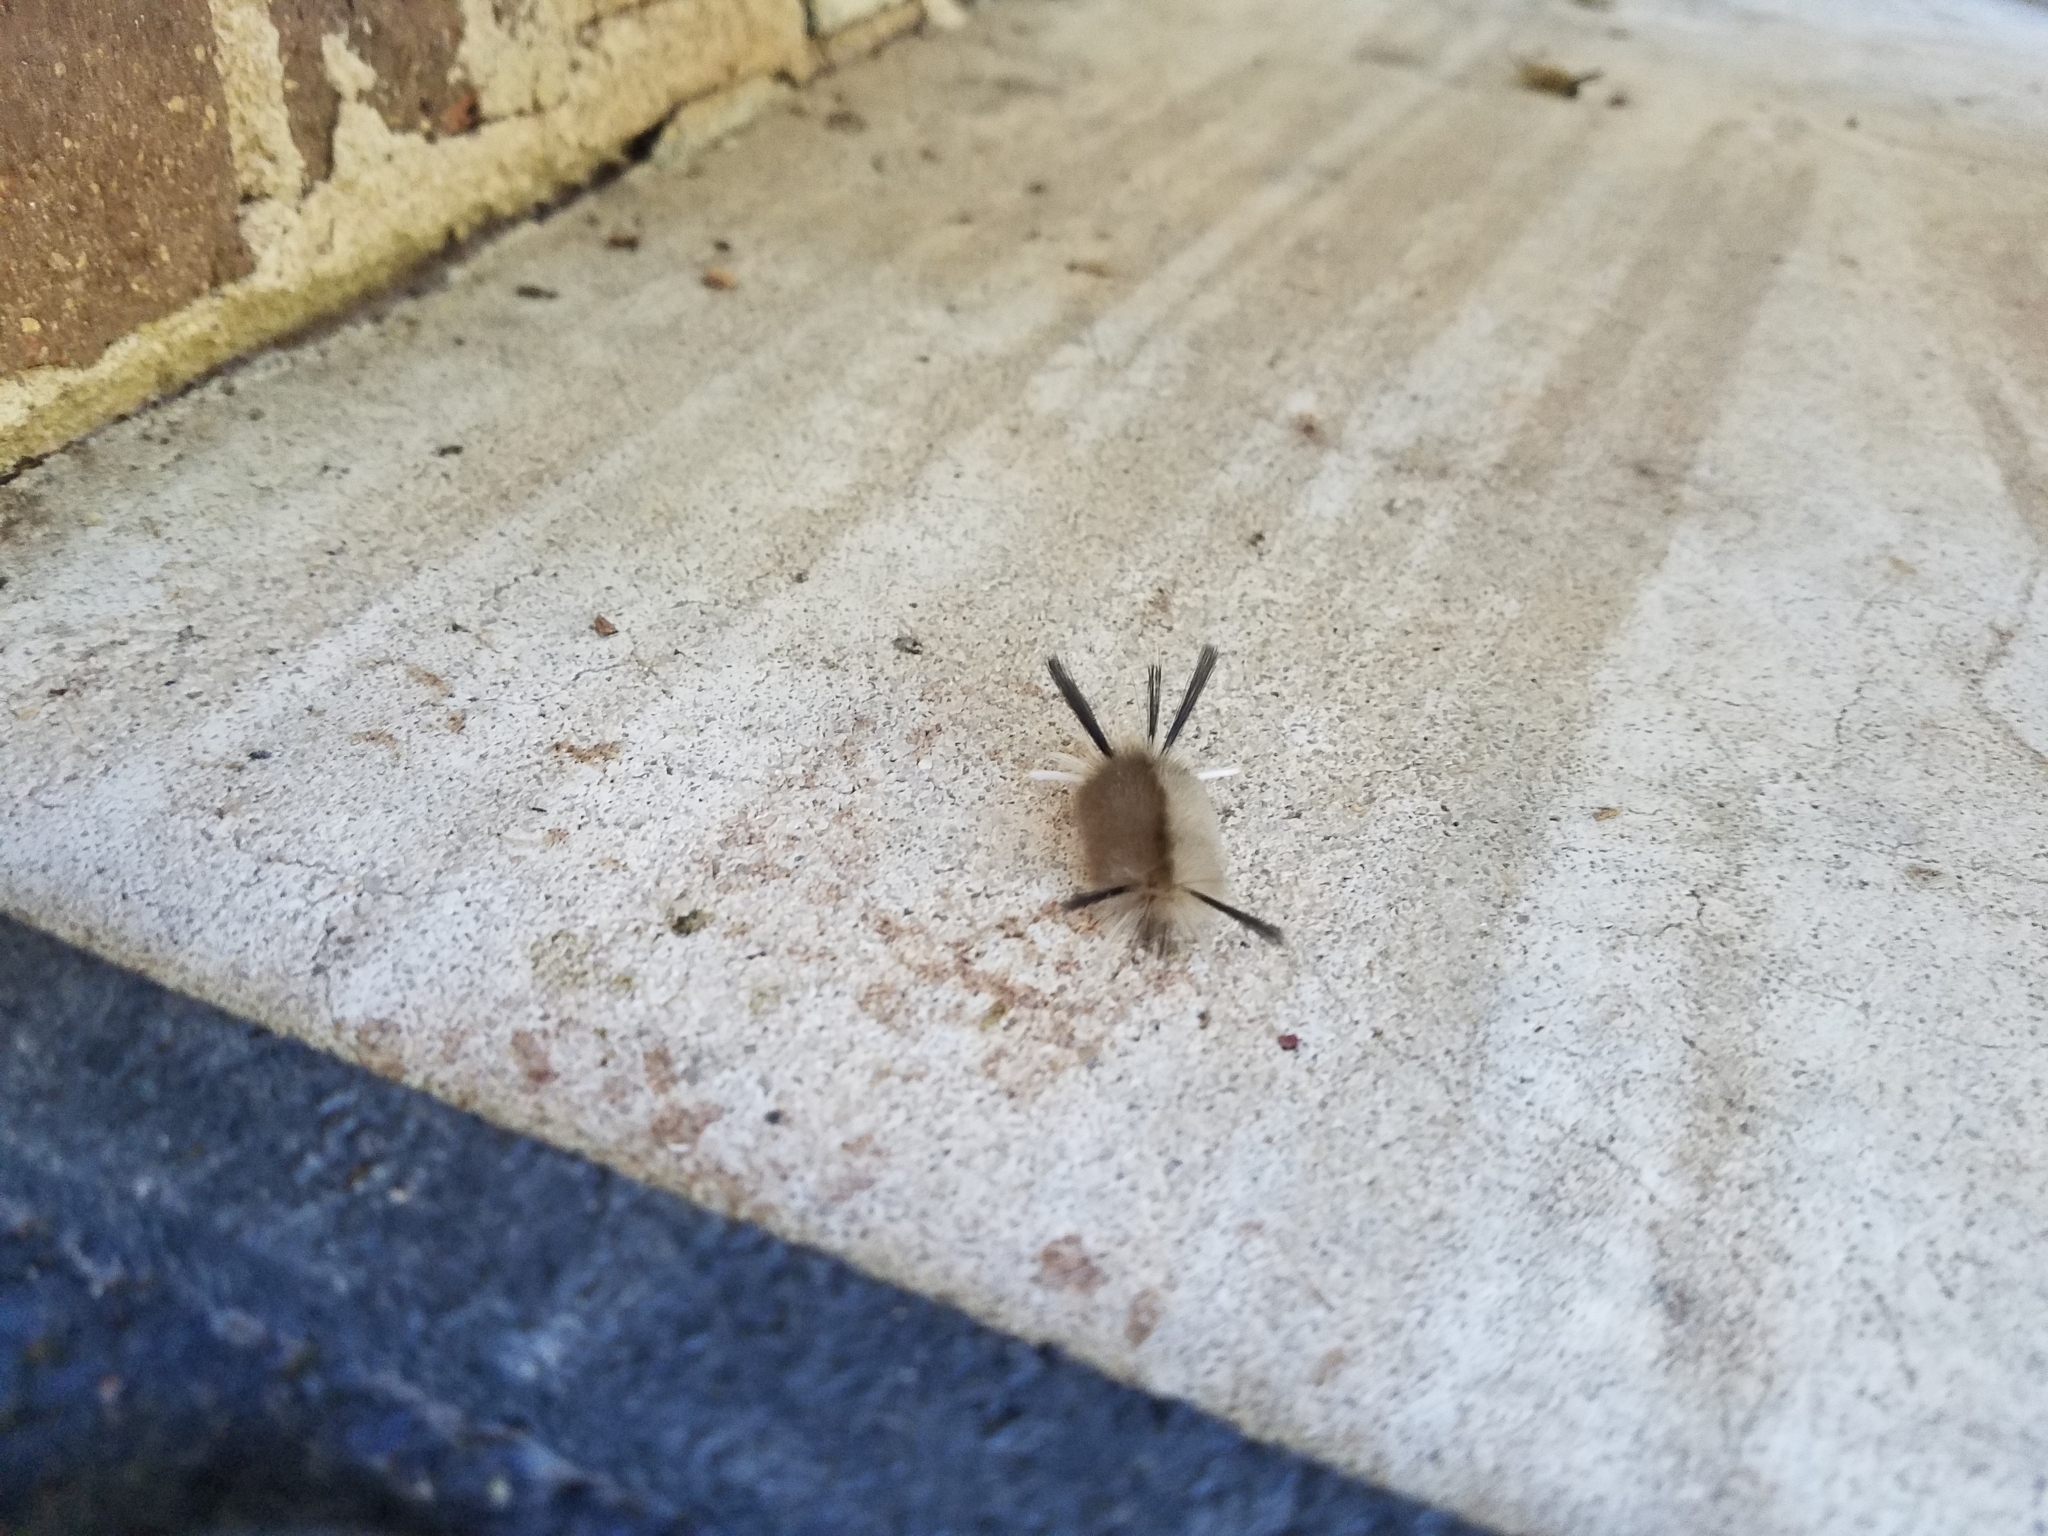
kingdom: Animalia
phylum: Arthropoda
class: Insecta
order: Lepidoptera
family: Erebidae
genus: Halysidota
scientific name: Halysidota tessellaris
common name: Banded tussock moth
